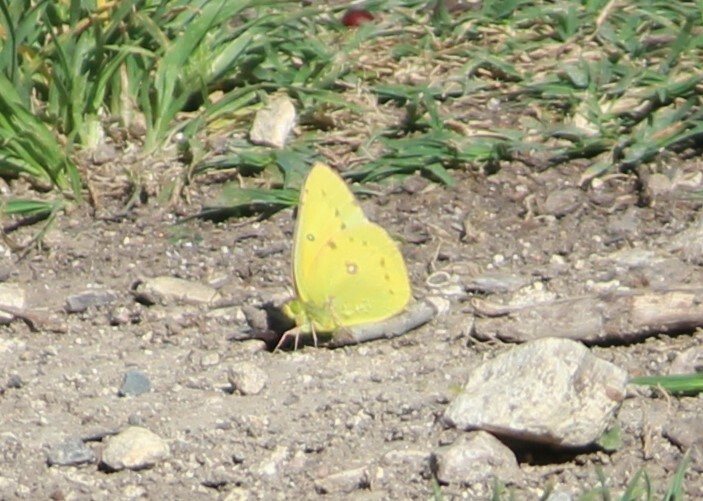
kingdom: Animalia
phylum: Arthropoda
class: Insecta
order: Lepidoptera
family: Pieridae
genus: Colias
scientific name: Colias eurytheme
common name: Alfalfa butterfly
